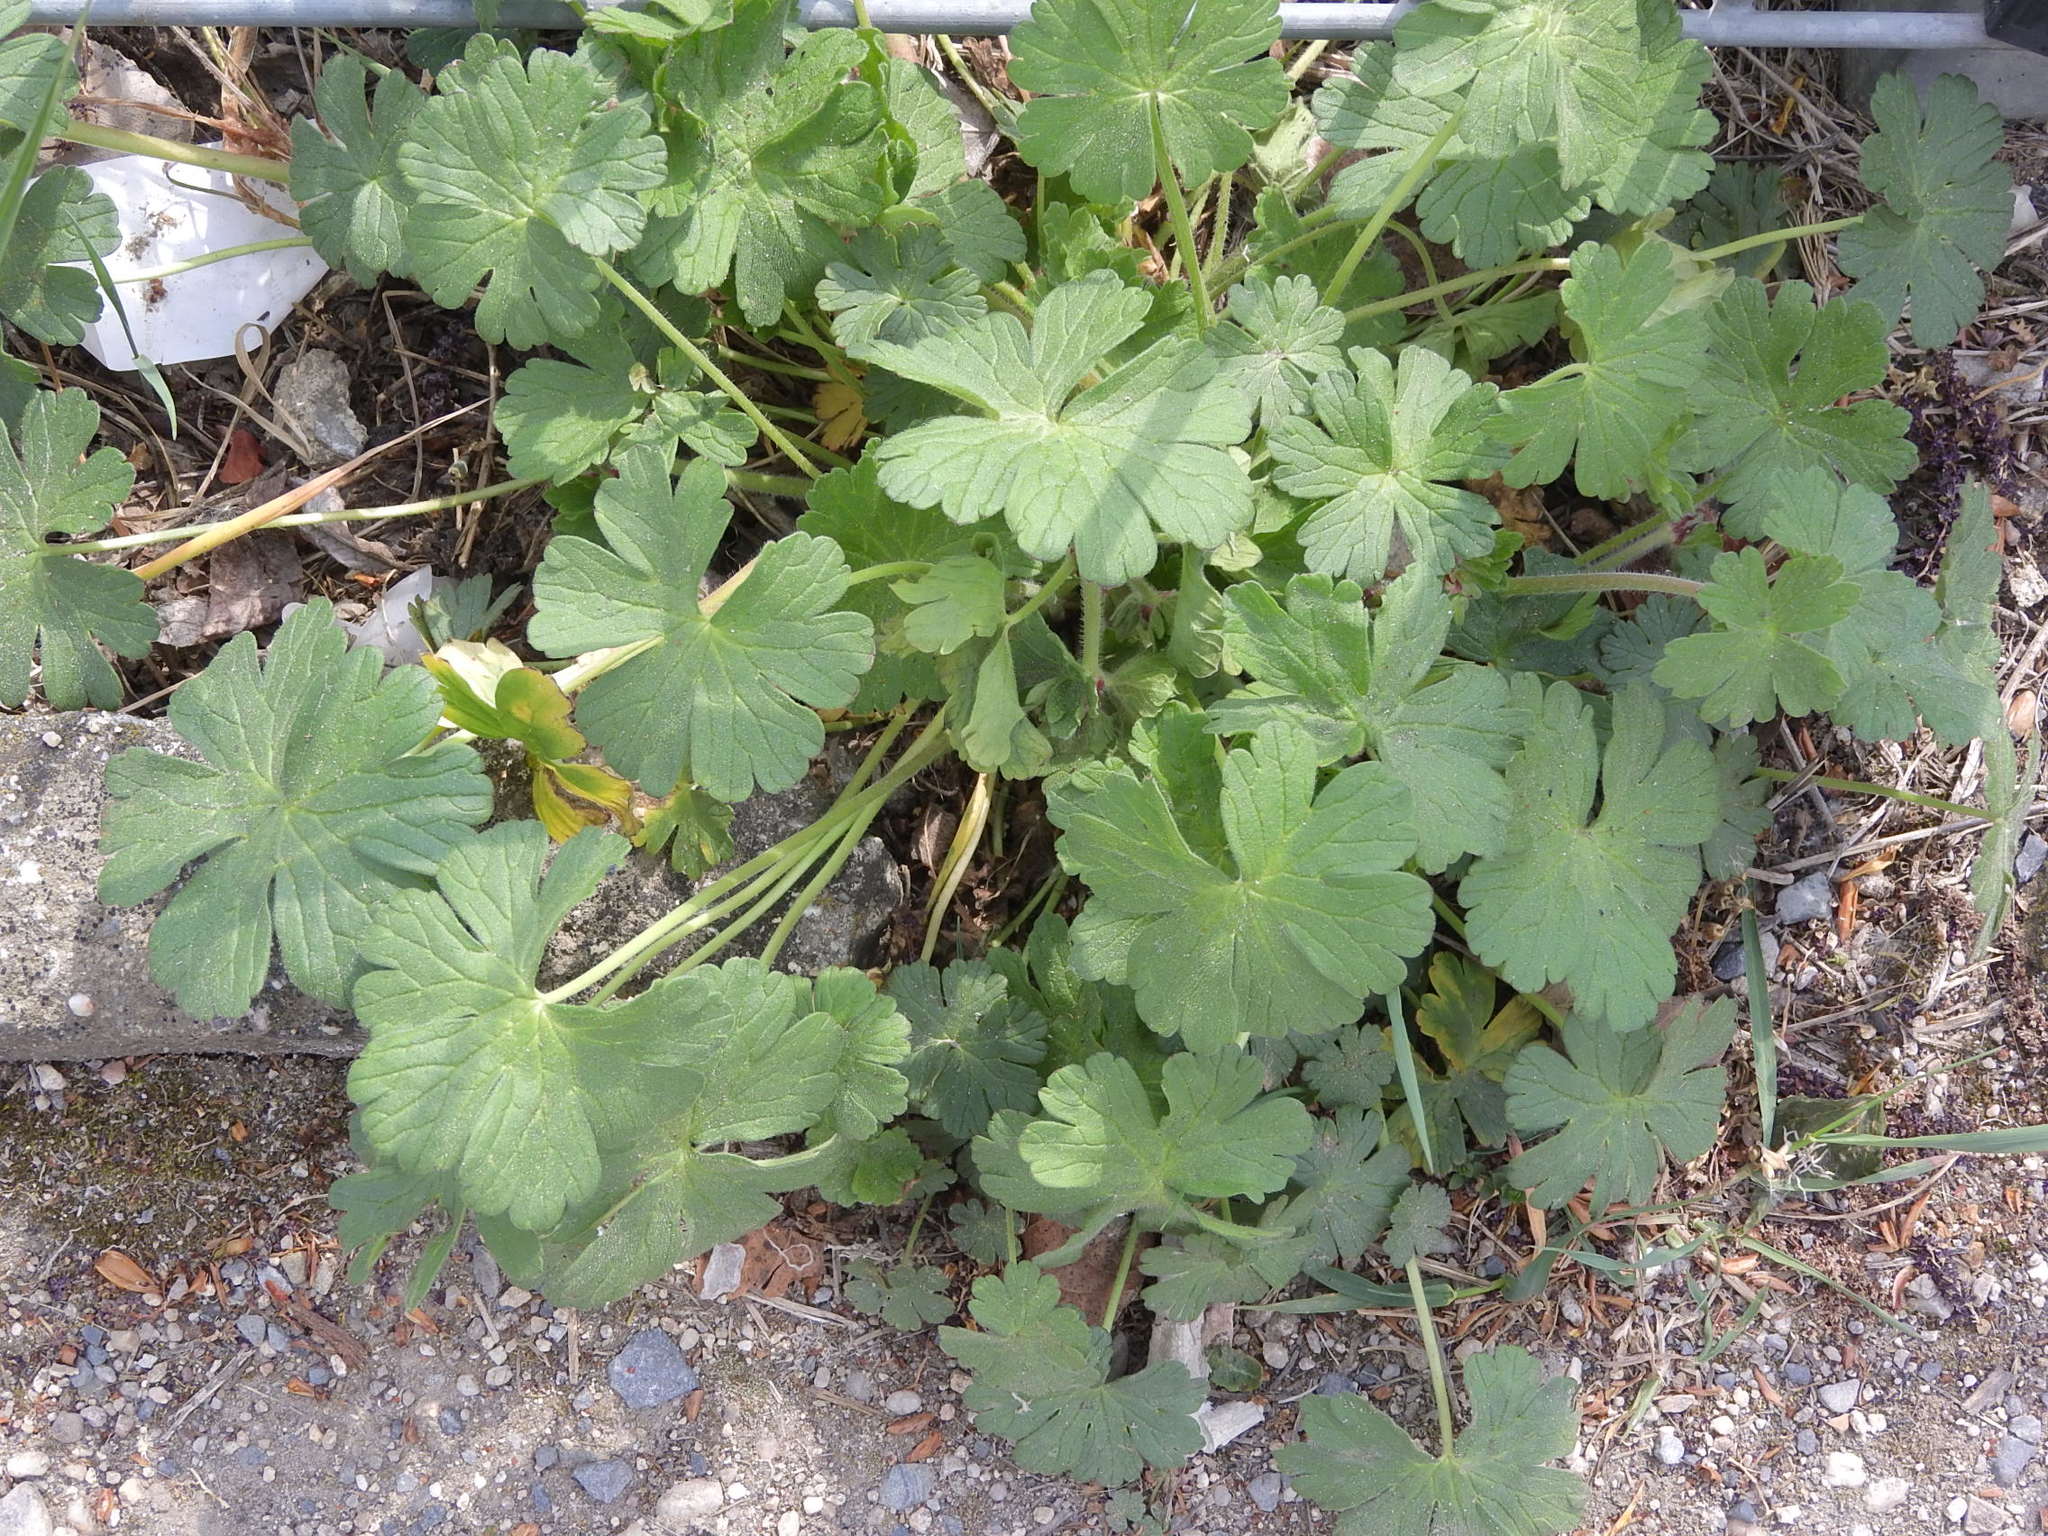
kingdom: Plantae
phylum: Tracheophyta
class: Magnoliopsida
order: Geraniales
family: Geraniaceae
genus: Geranium
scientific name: Geranium pyrenaicum
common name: Hedgerow crane's-bill
